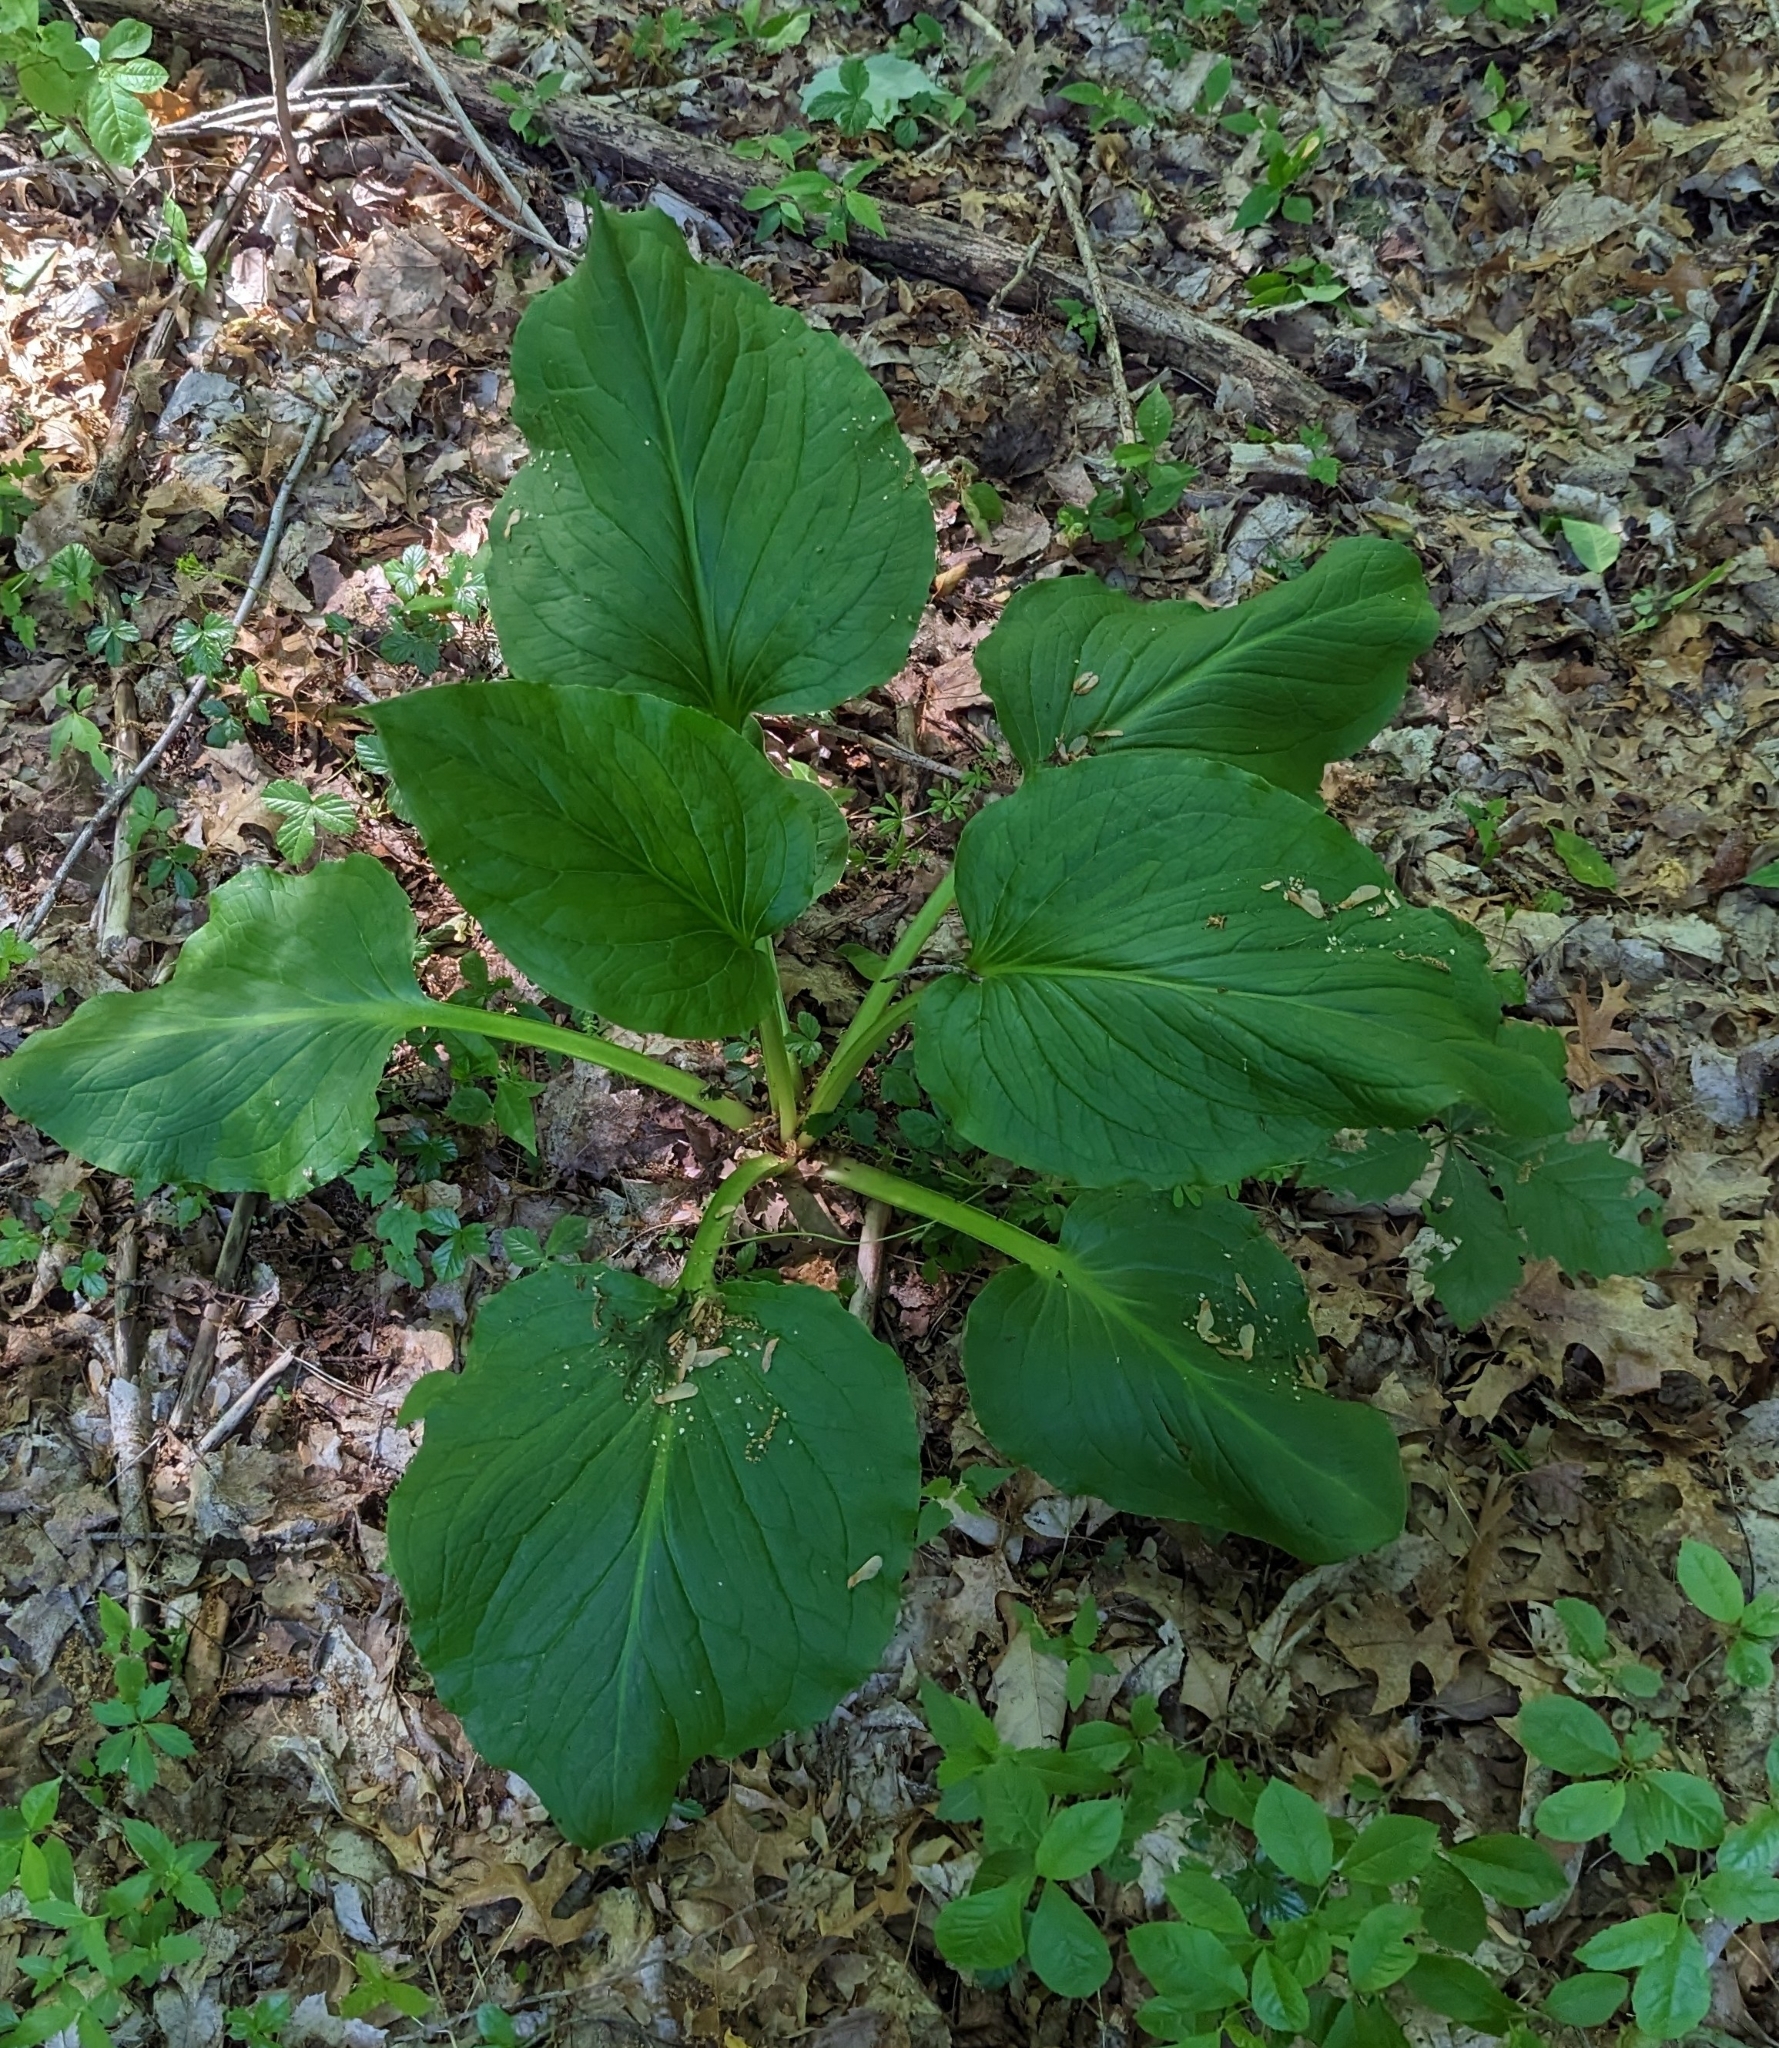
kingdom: Plantae
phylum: Tracheophyta
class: Liliopsida
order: Alismatales
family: Araceae
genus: Symplocarpus
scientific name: Symplocarpus foetidus
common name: Eastern skunk cabbage
